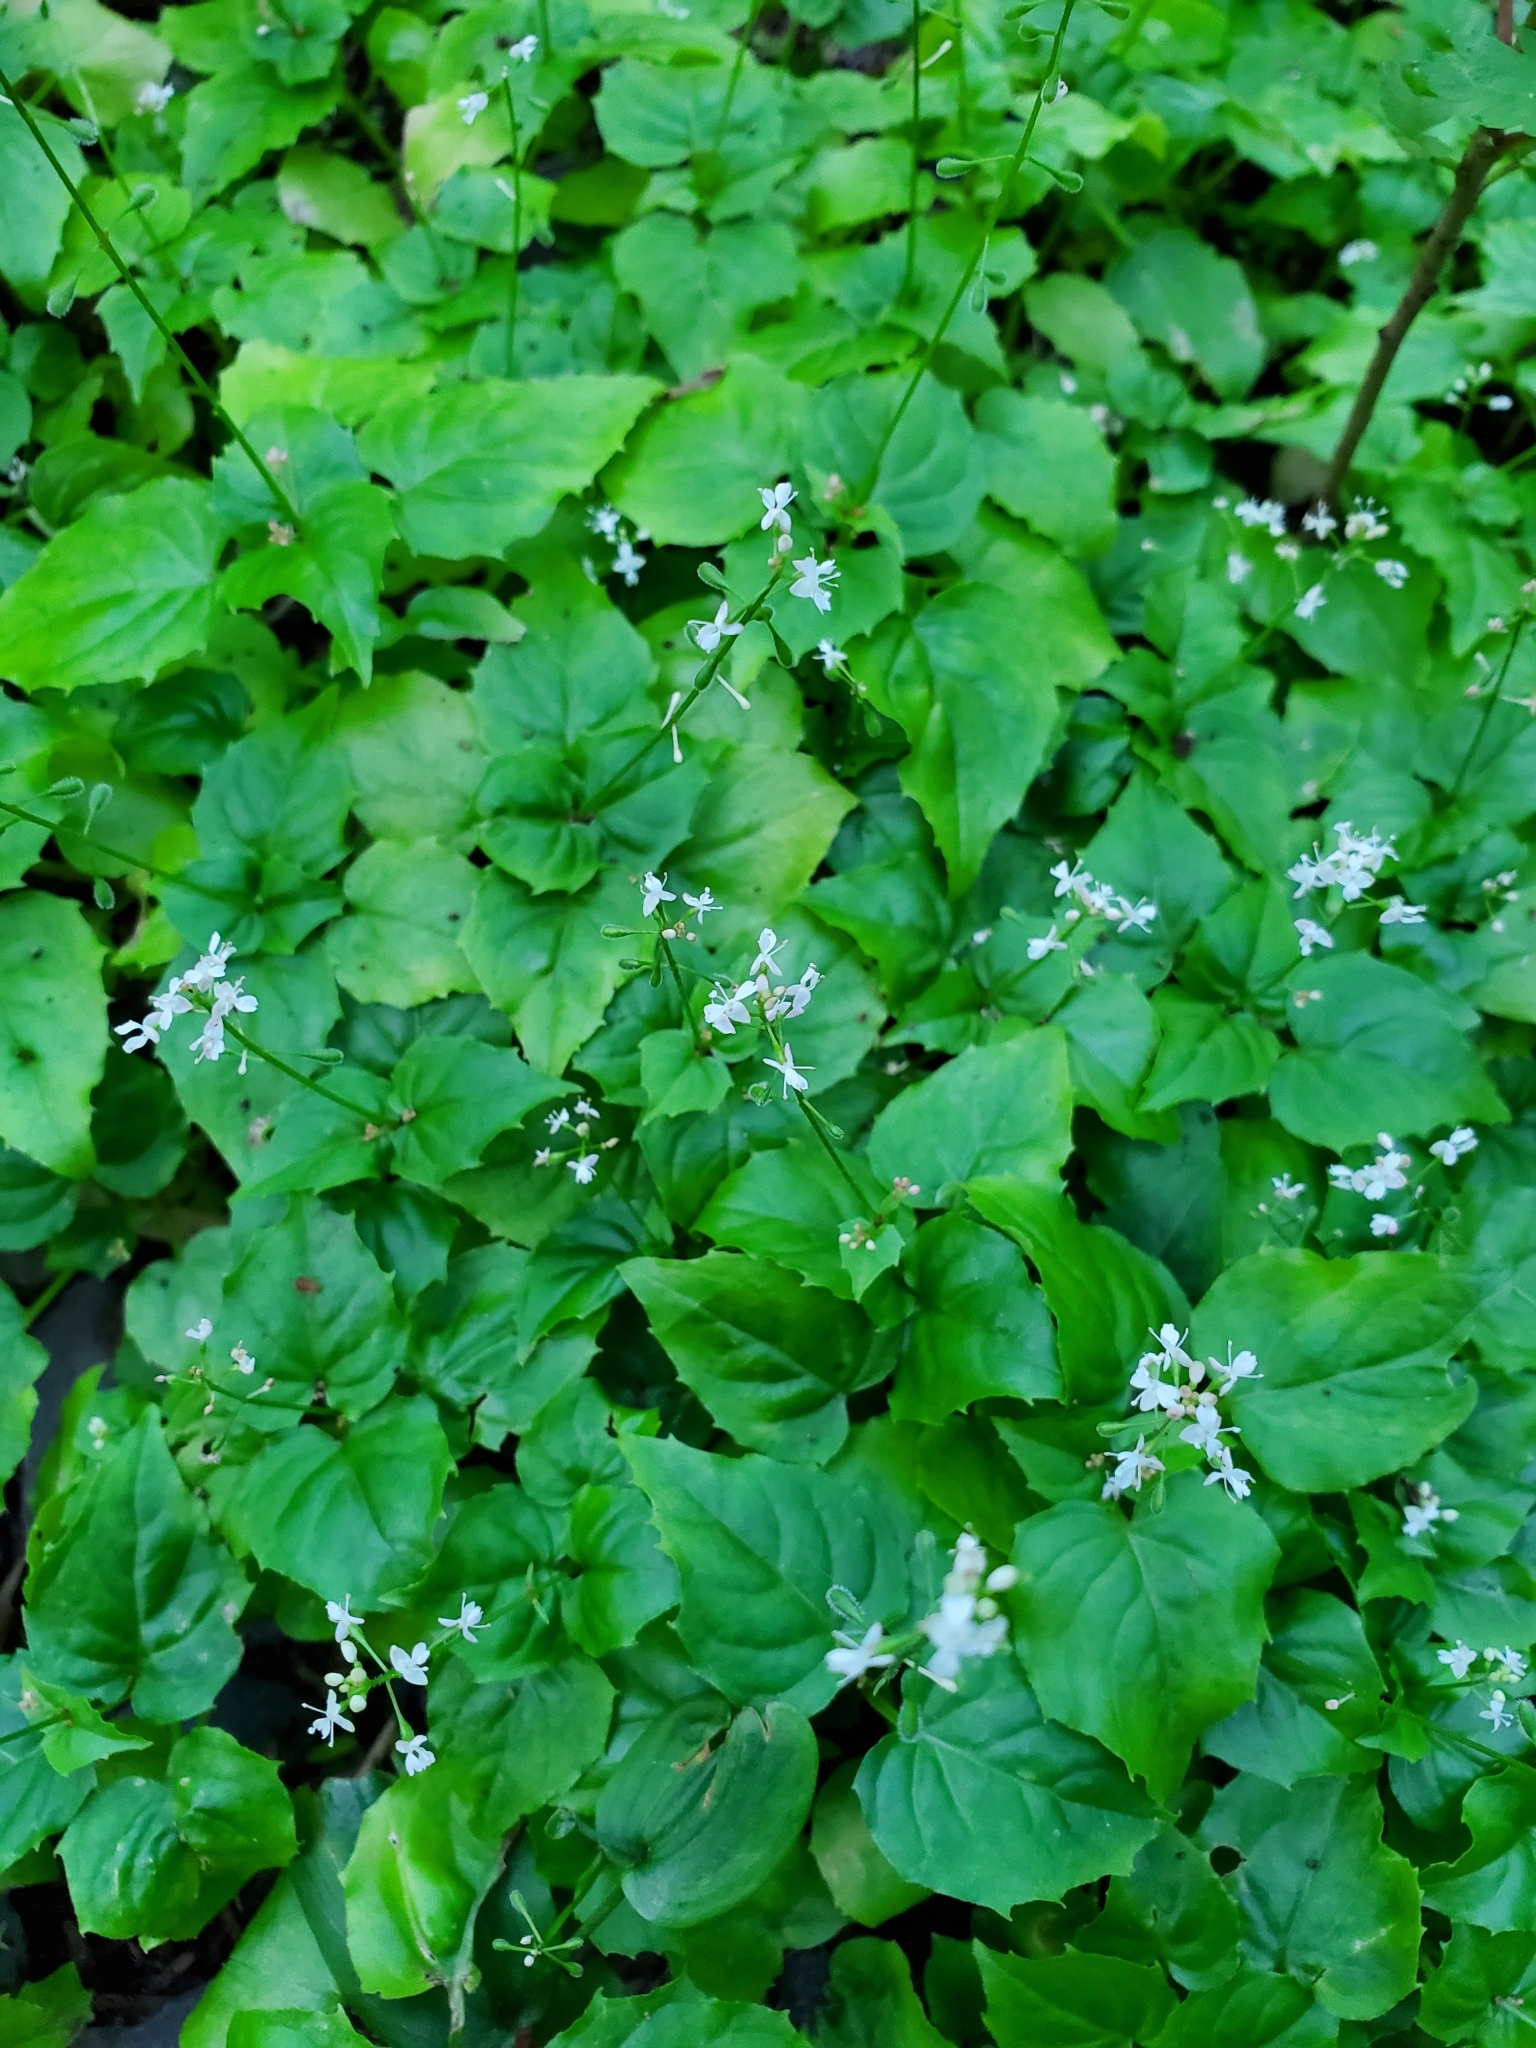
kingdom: Plantae
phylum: Tracheophyta
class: Magnoliopsida
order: Myrtales
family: Onagraceae
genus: Circaea
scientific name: Circaea alpina
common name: Alpine enchanter's-nightshade
